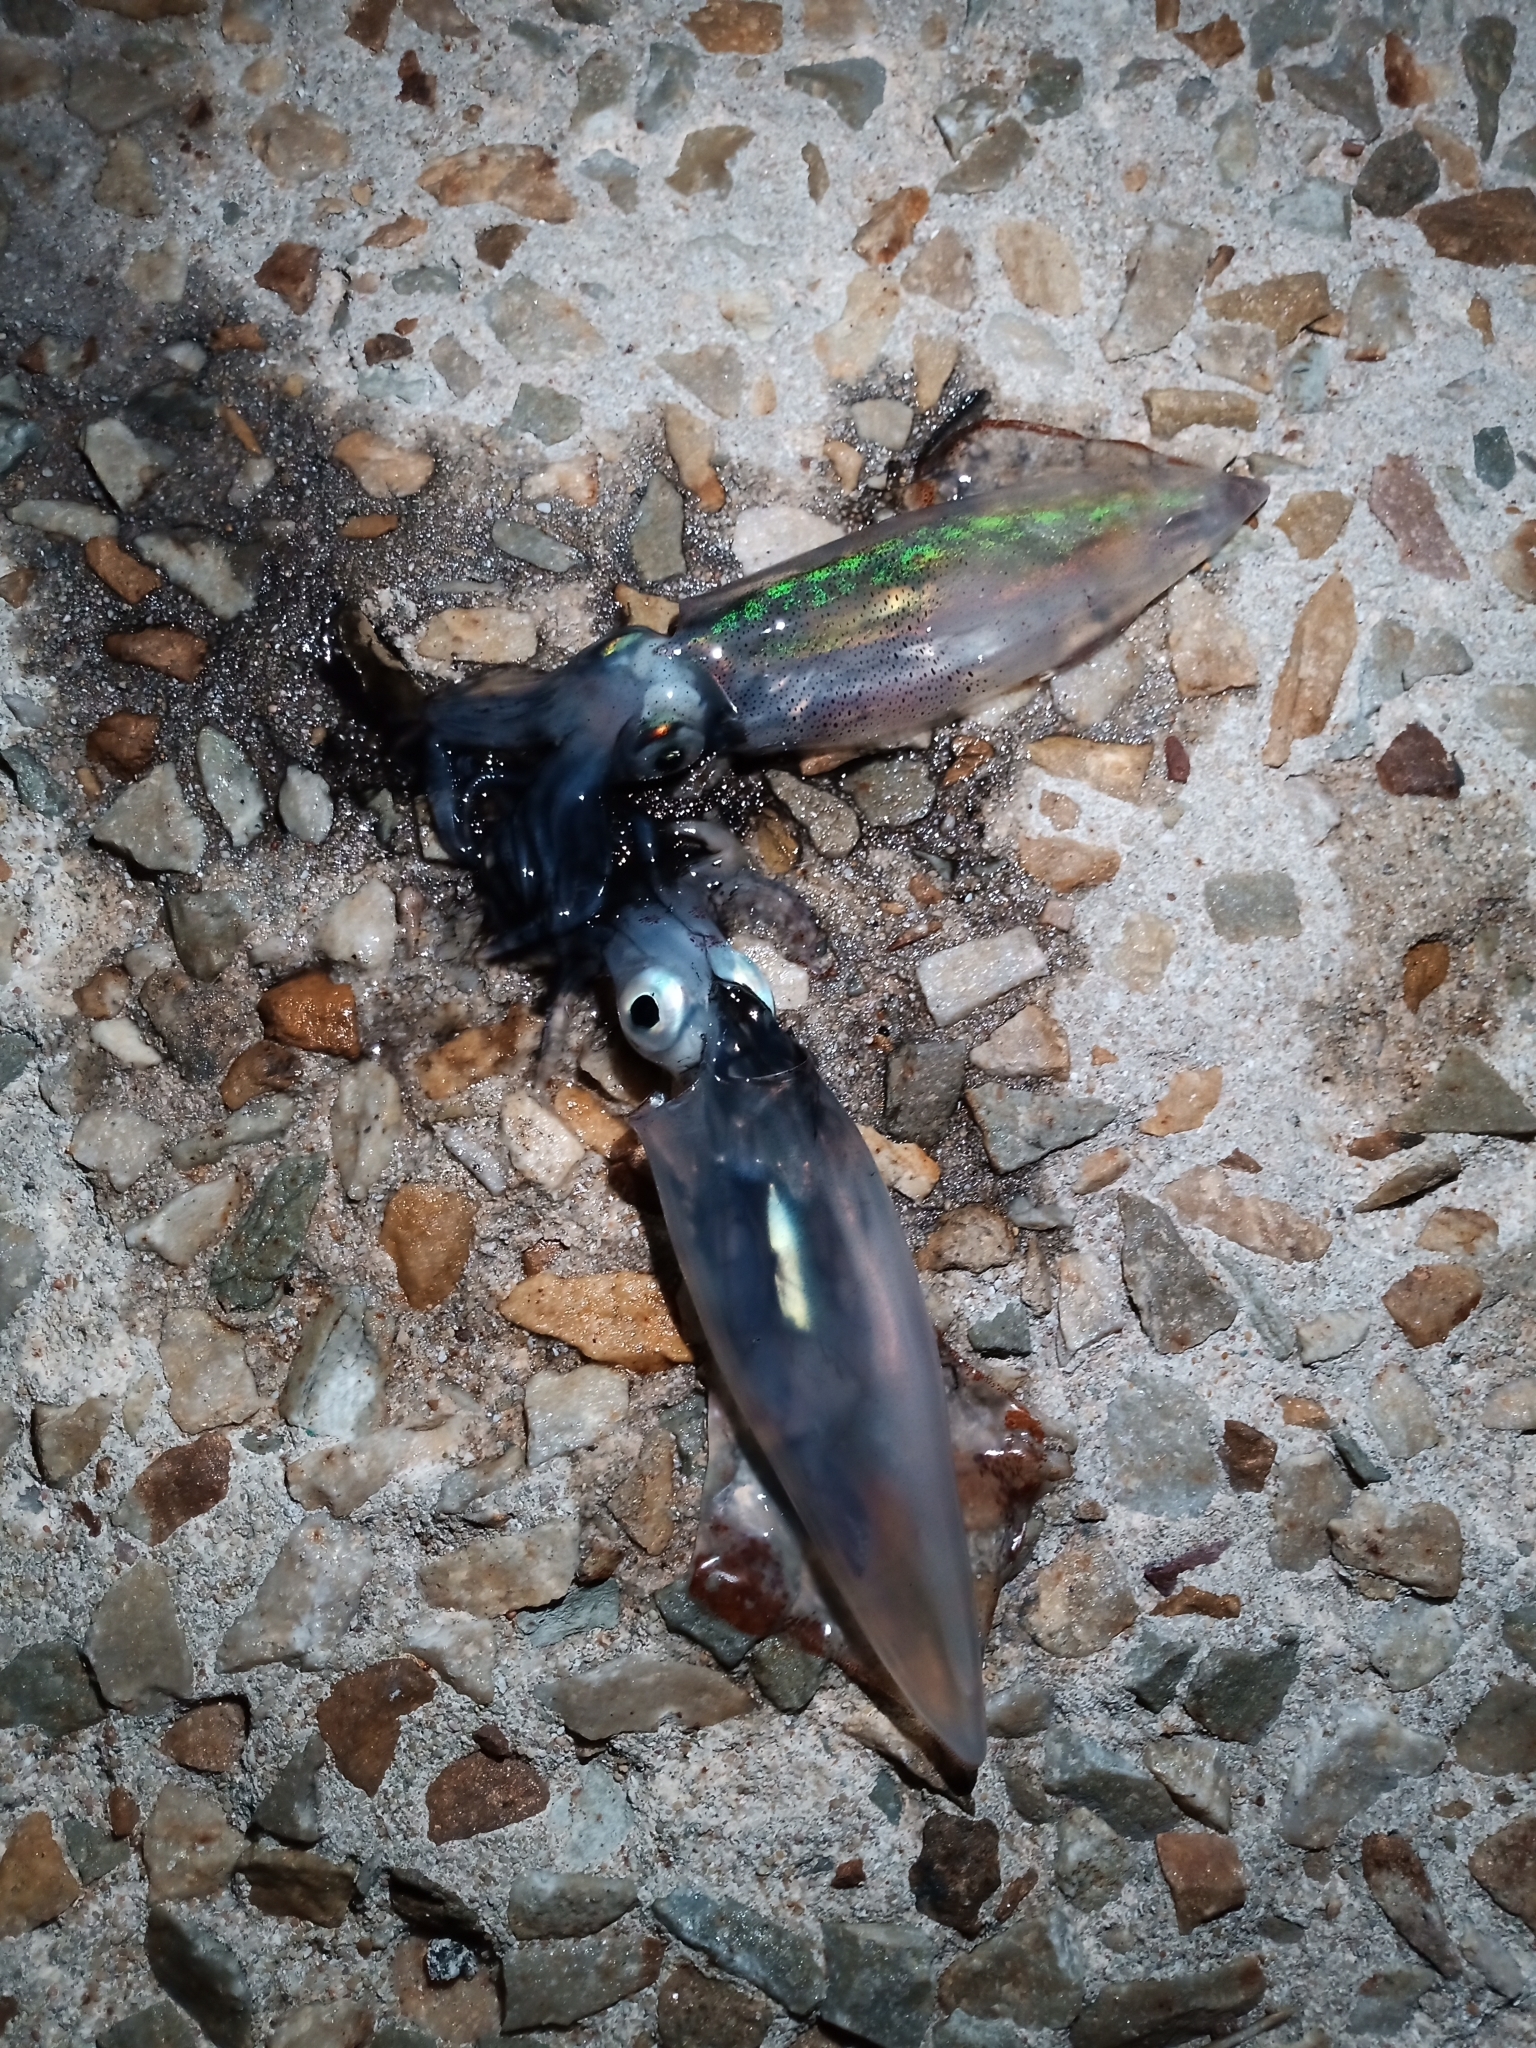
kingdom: Animalia
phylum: Mollusca
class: Cephalopoda
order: Myopsida
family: Loliginidae
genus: Loligo
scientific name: Loligo reynaudii
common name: Cape hope squid
